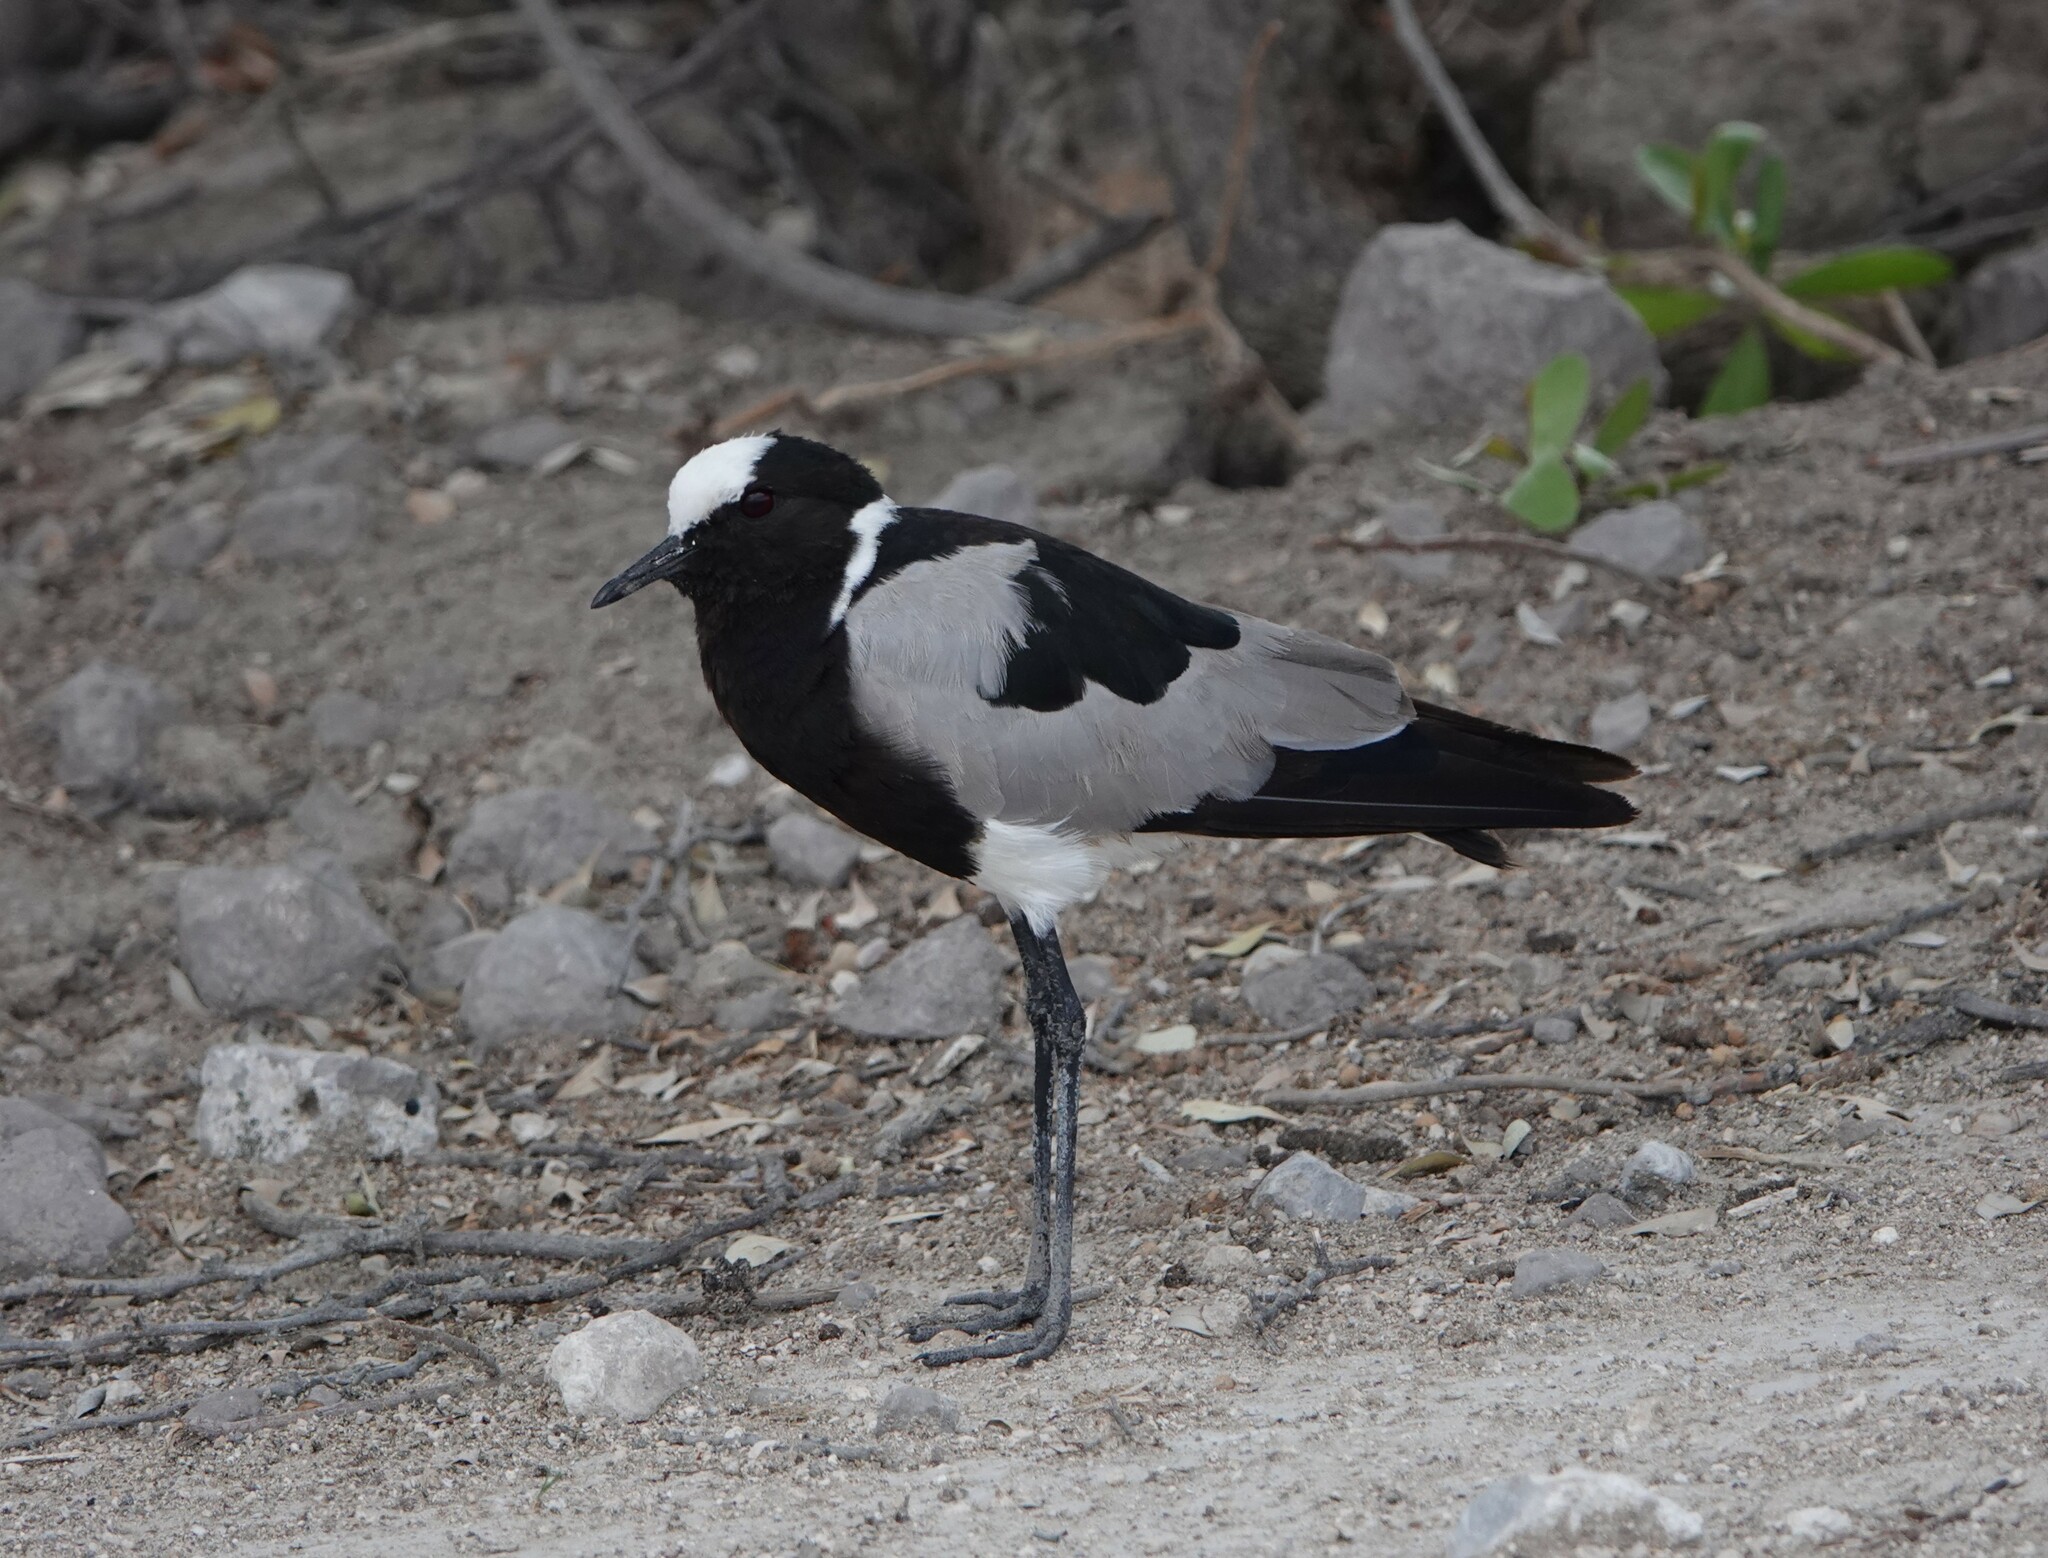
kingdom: Animalia
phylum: Chordata
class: Aves
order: Charadriiformes
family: Charadriidae
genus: Vanellus
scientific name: Vanellus armatus
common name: Blacksmith lapwing
